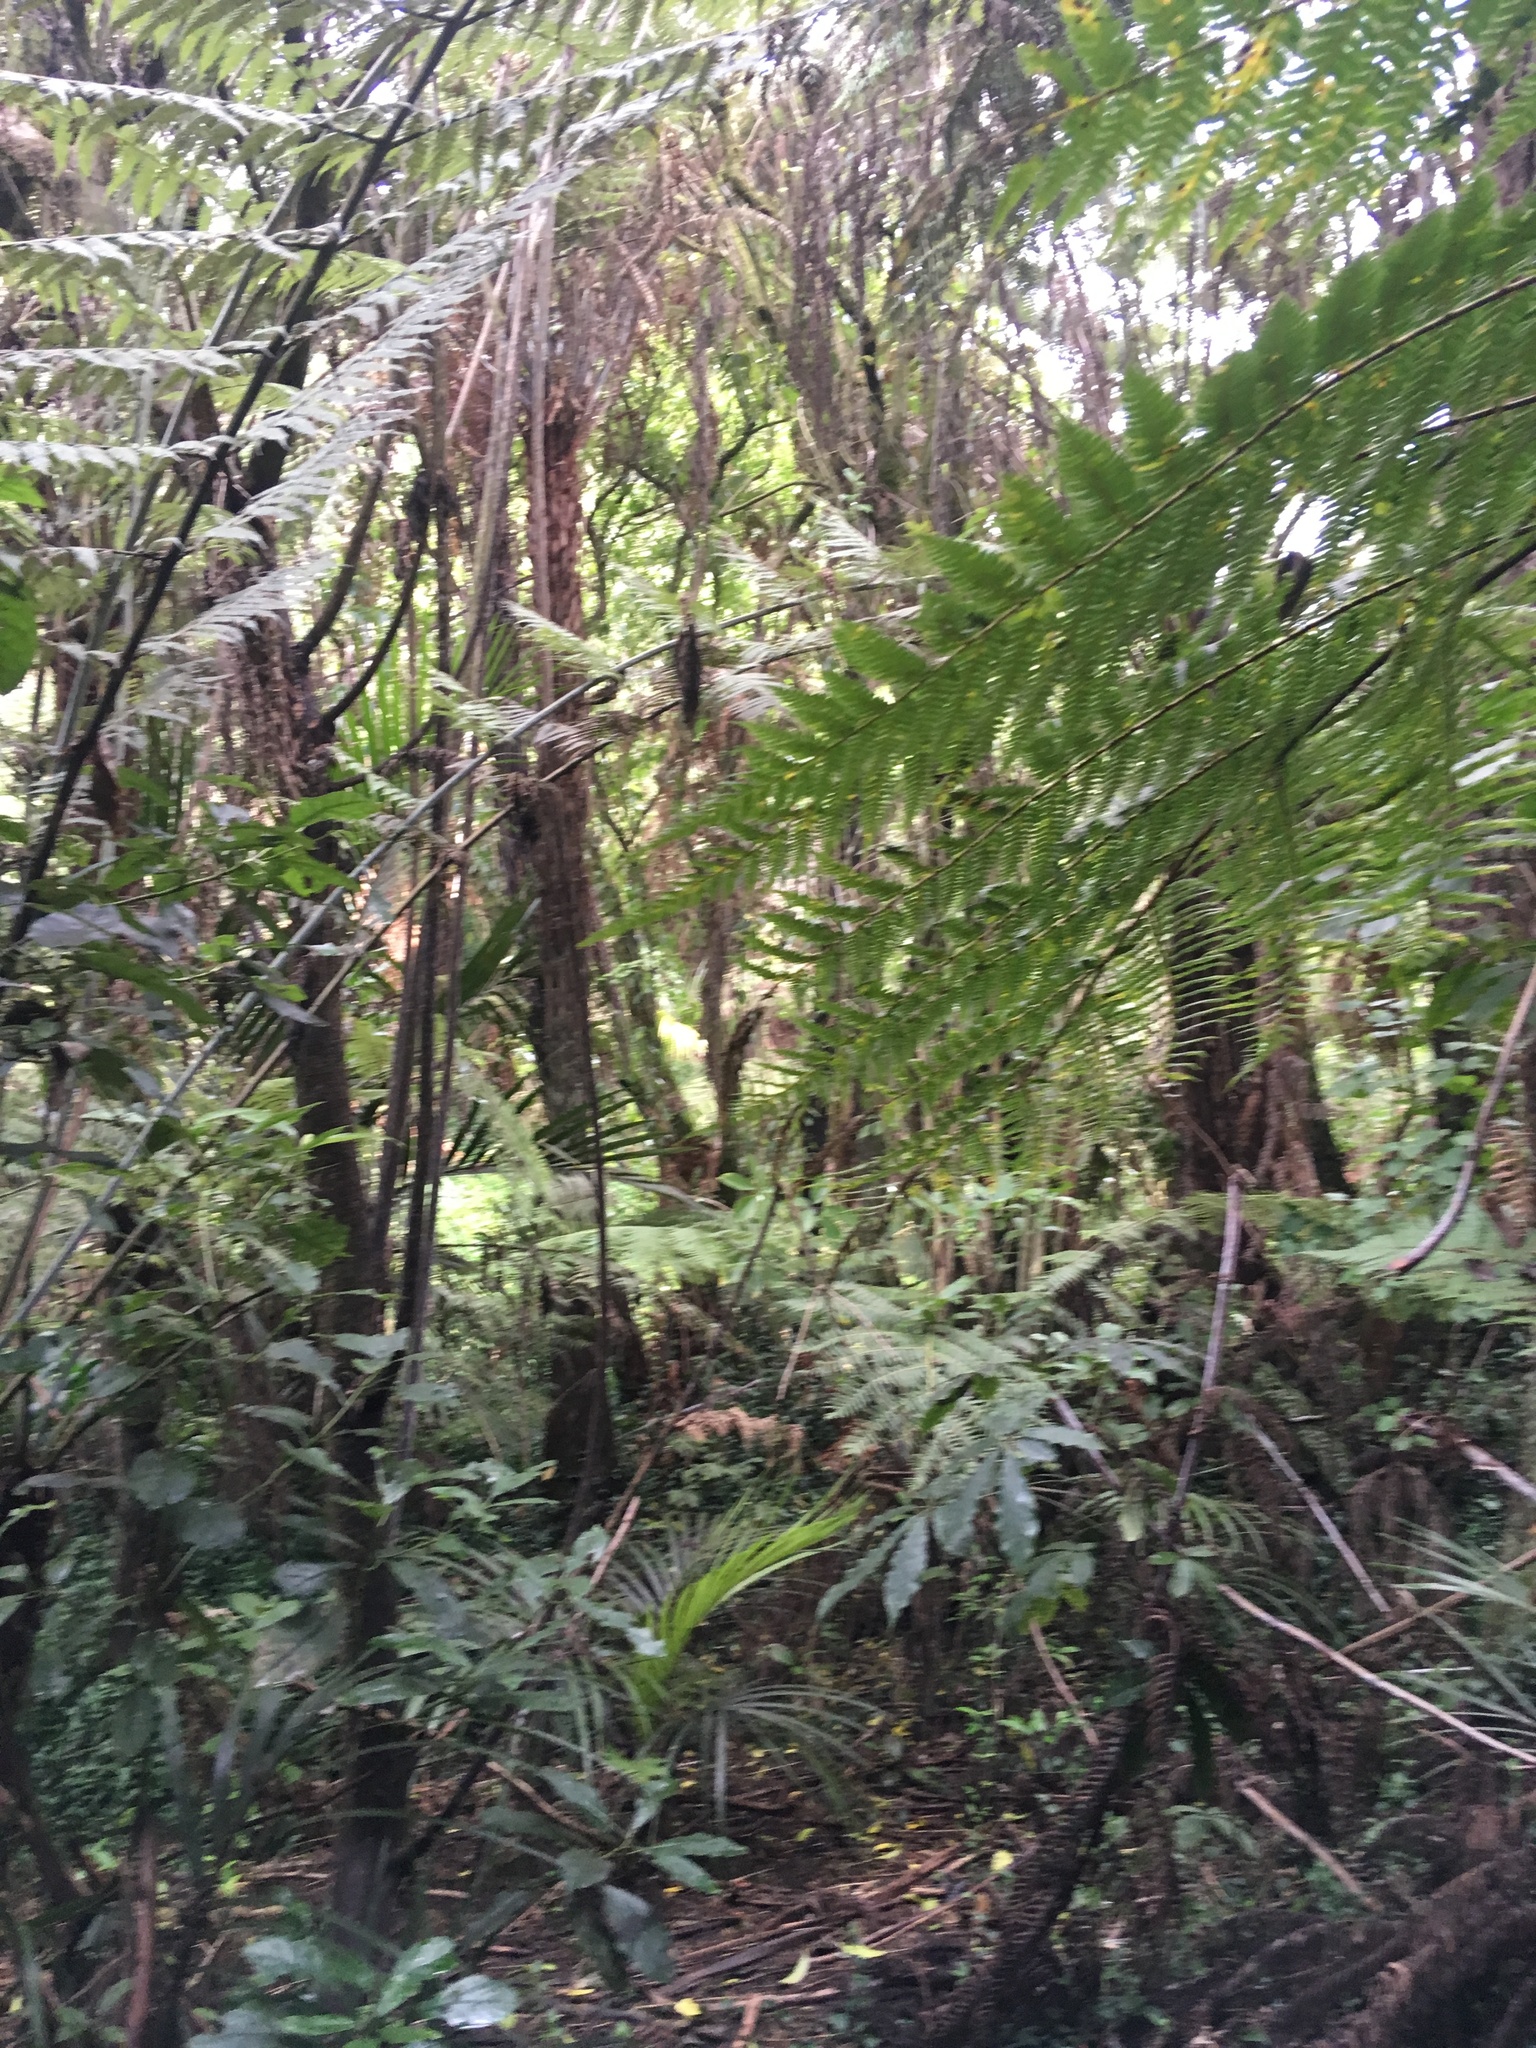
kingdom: Plantae
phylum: Tracheophyta
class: Magnoliopsida
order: Apiales
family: Araliaceae
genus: Schefflera
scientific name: Schefflera digitata
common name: Pate
